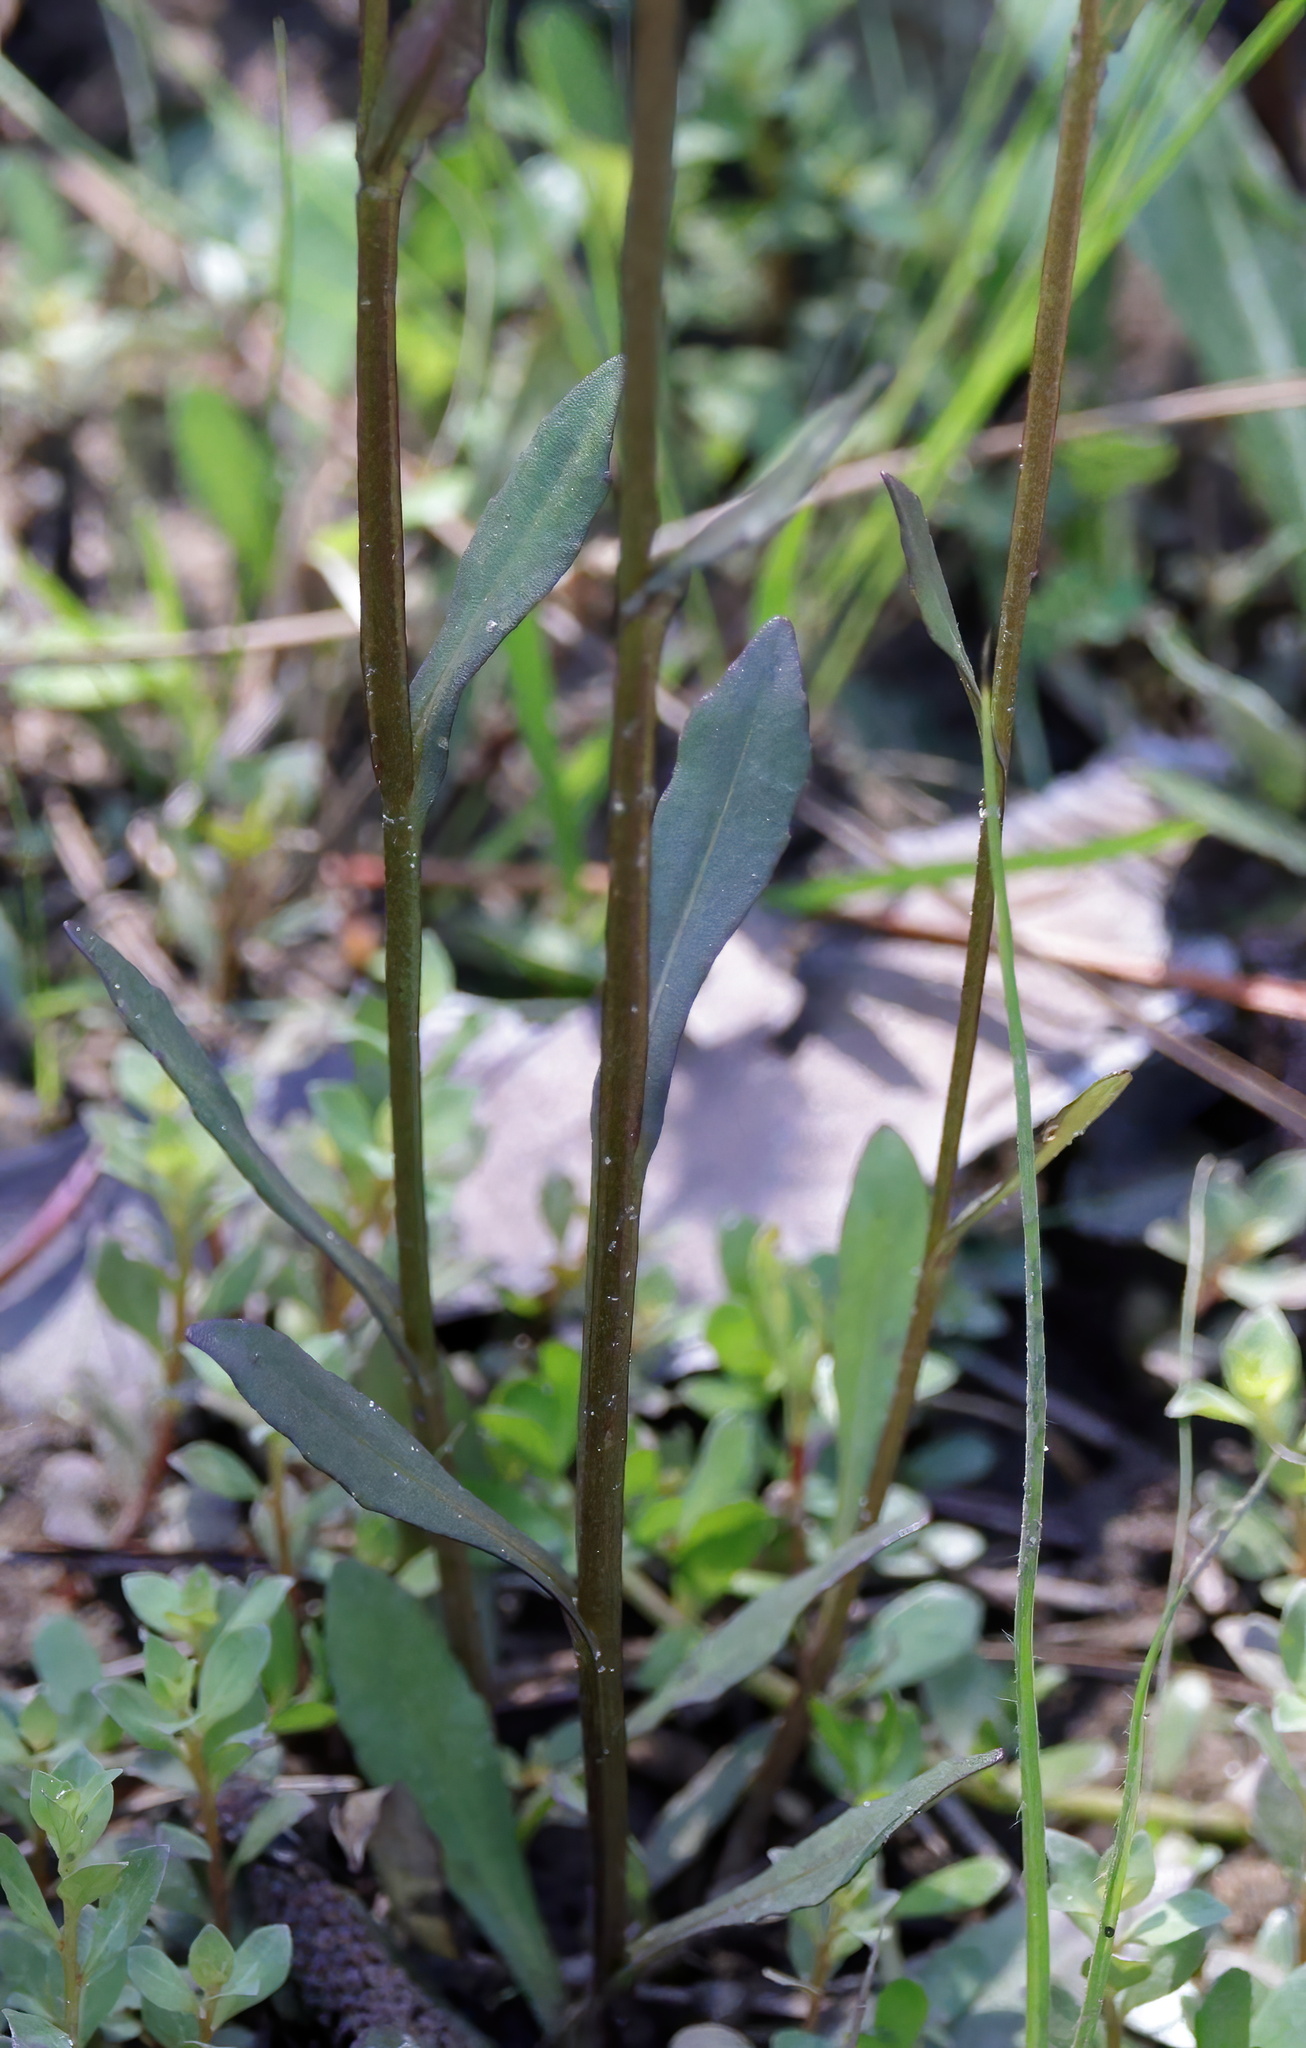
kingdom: Plantae
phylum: Tracheophyta
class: Magnoliopsida
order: Asterales
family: Asteraceae
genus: Helenium
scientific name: Helenium brevifolium
